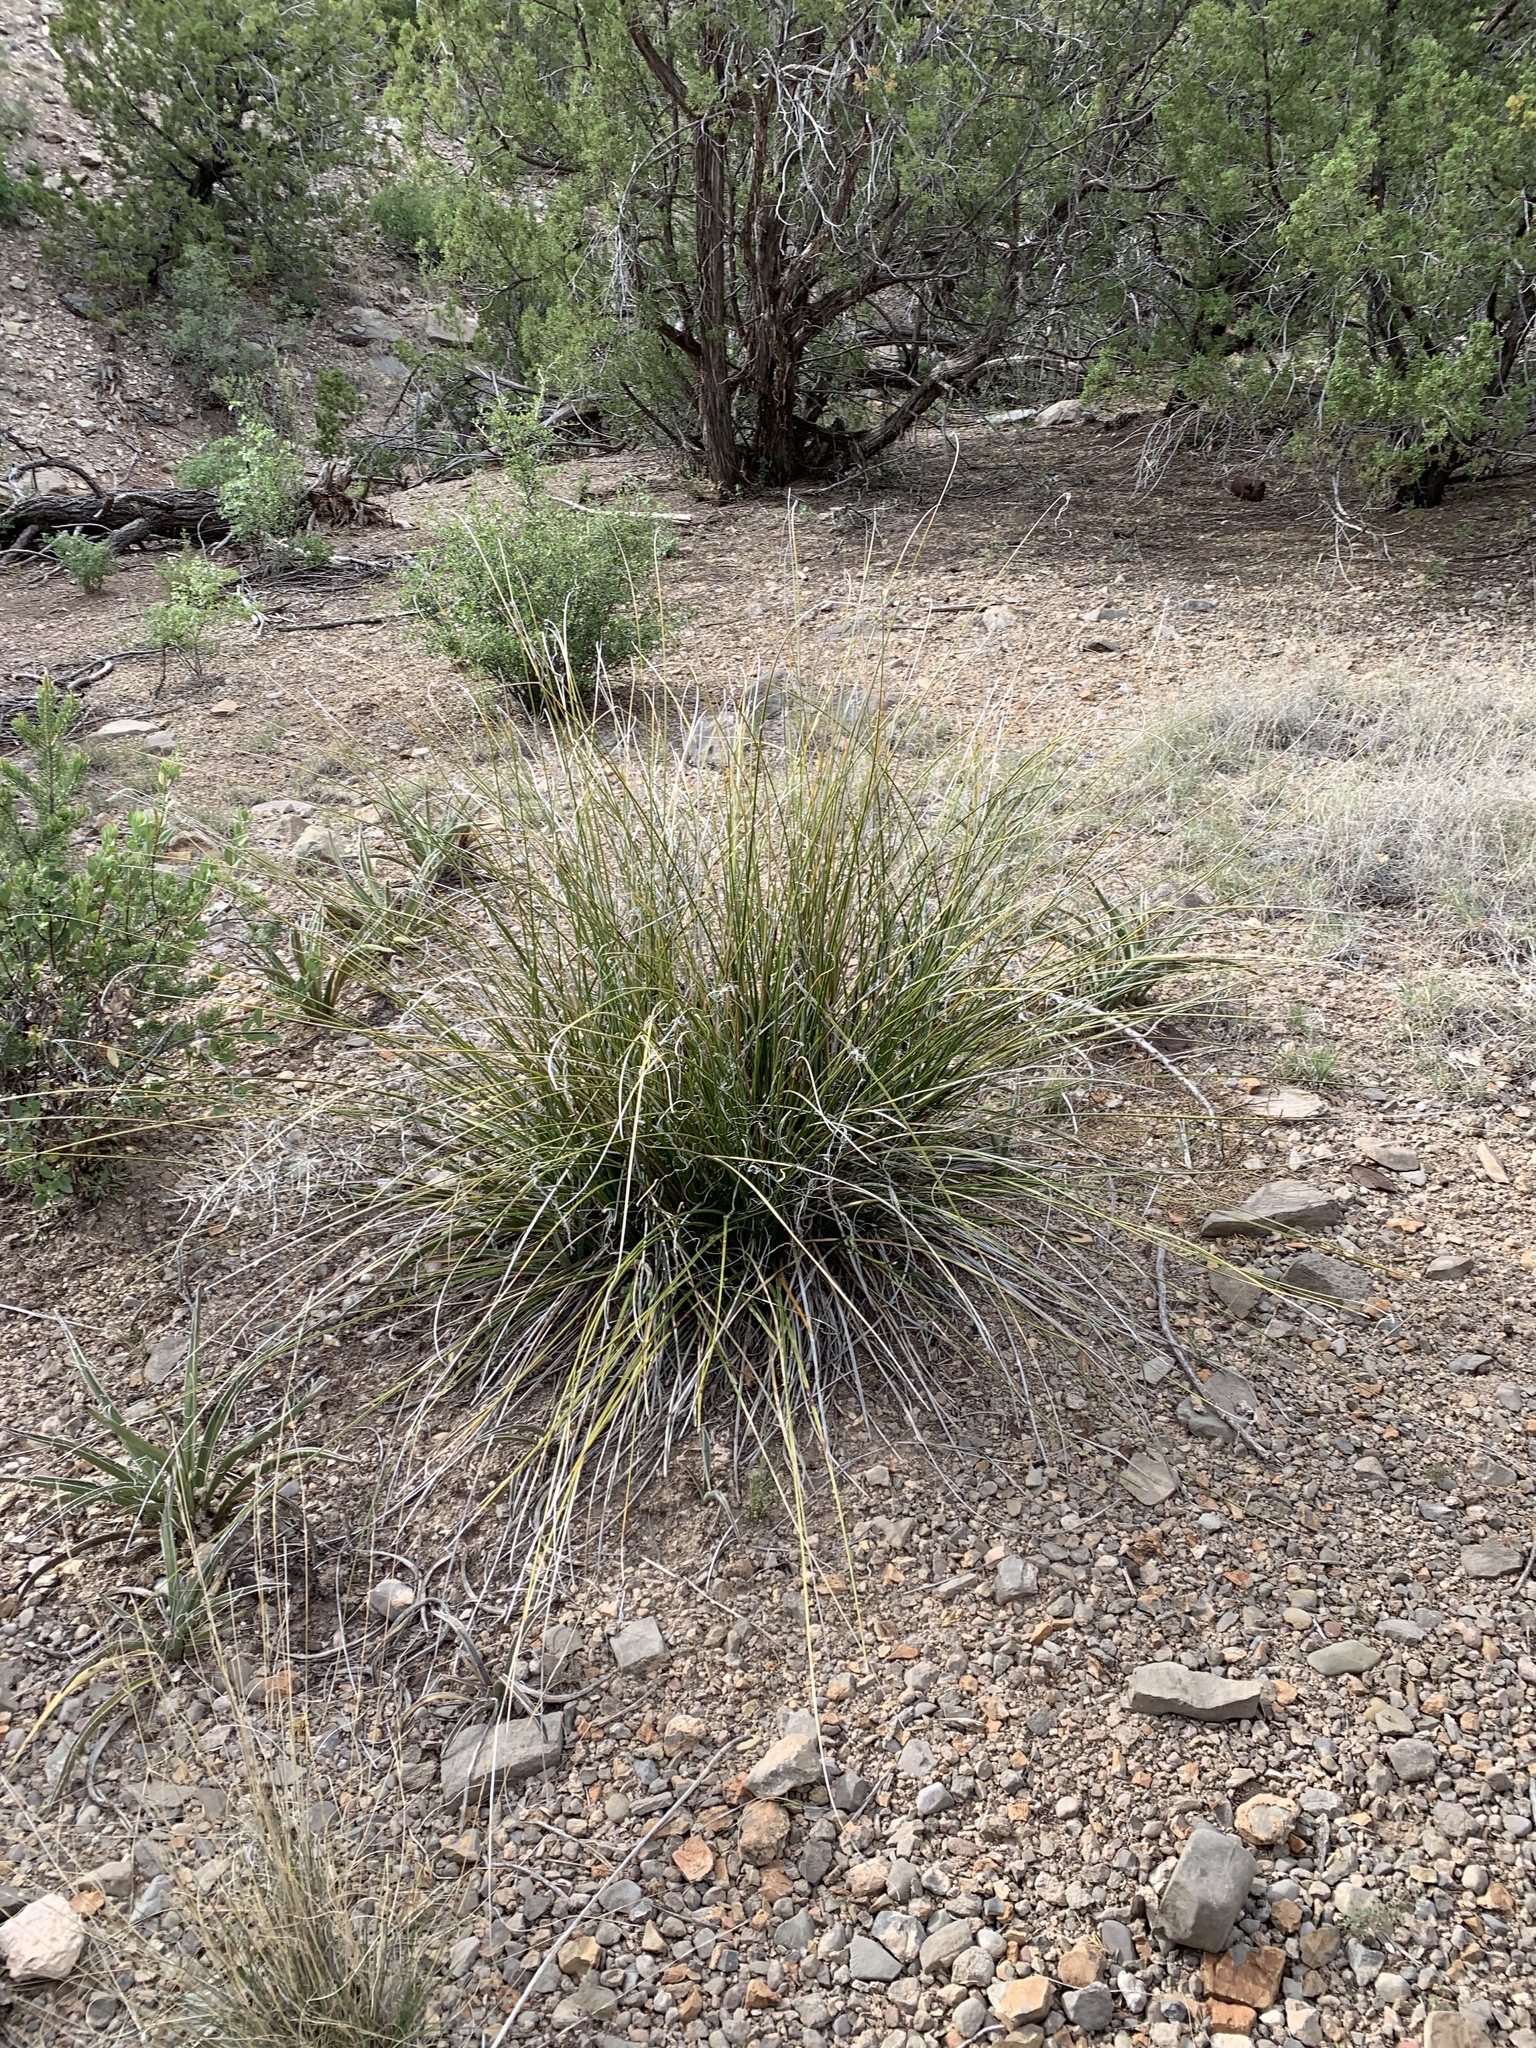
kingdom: Plantae
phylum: Tracheophyta
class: Liliopsida
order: Asparagales
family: Asparagaceae
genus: Nolina
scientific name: Nolina microcarpa
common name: Bear-grass
